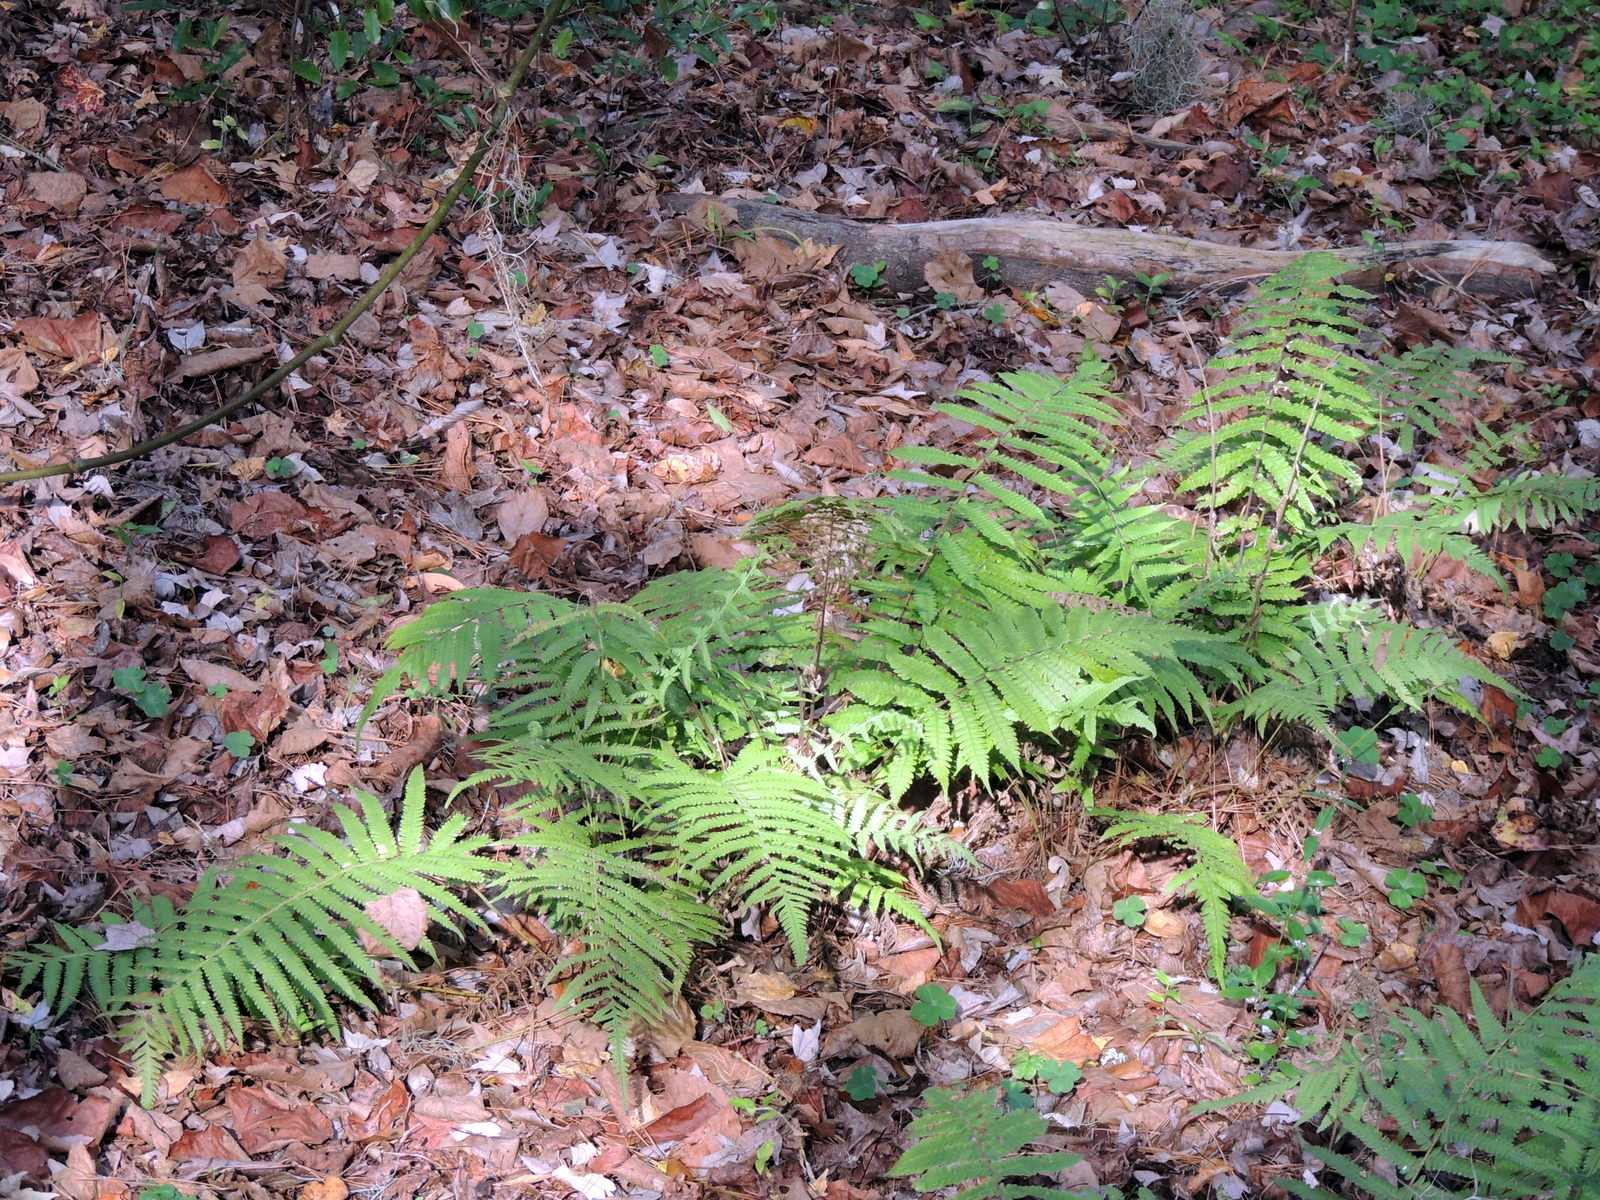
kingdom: Plantae
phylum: Tracheophyta
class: Polypodiopsida
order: Polypodiales
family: Thelypteridaceae
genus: Christella
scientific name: Christella dentata
